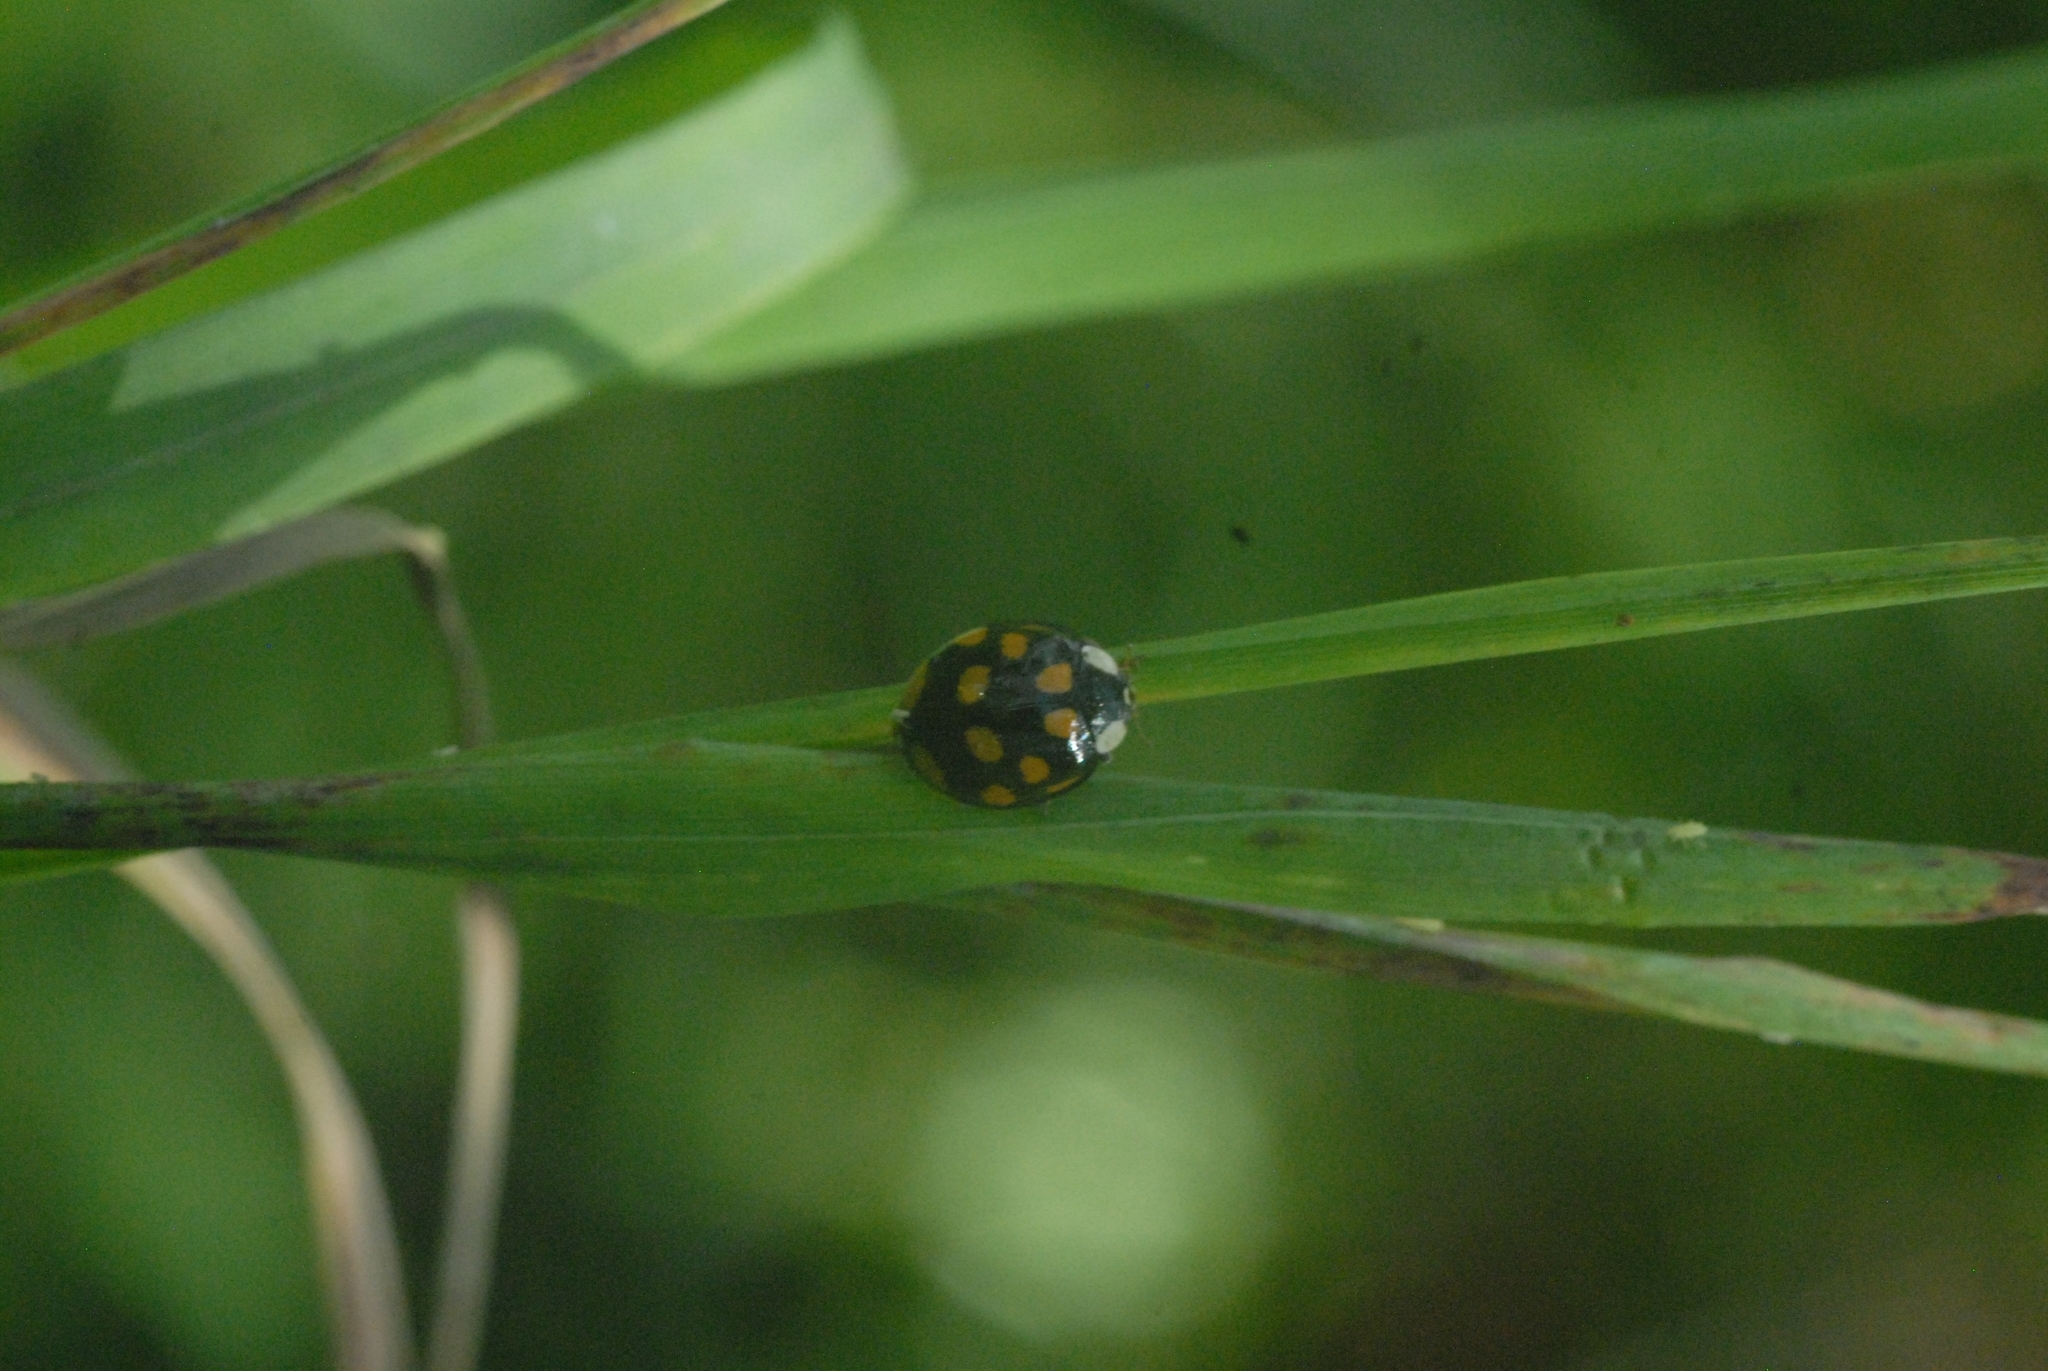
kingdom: Animalia
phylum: Arthropoda
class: Insecta
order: Coleoptera
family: Coccinellidae
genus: Harmonia
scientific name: Harmonia axyridis
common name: Harlequin ladybird
